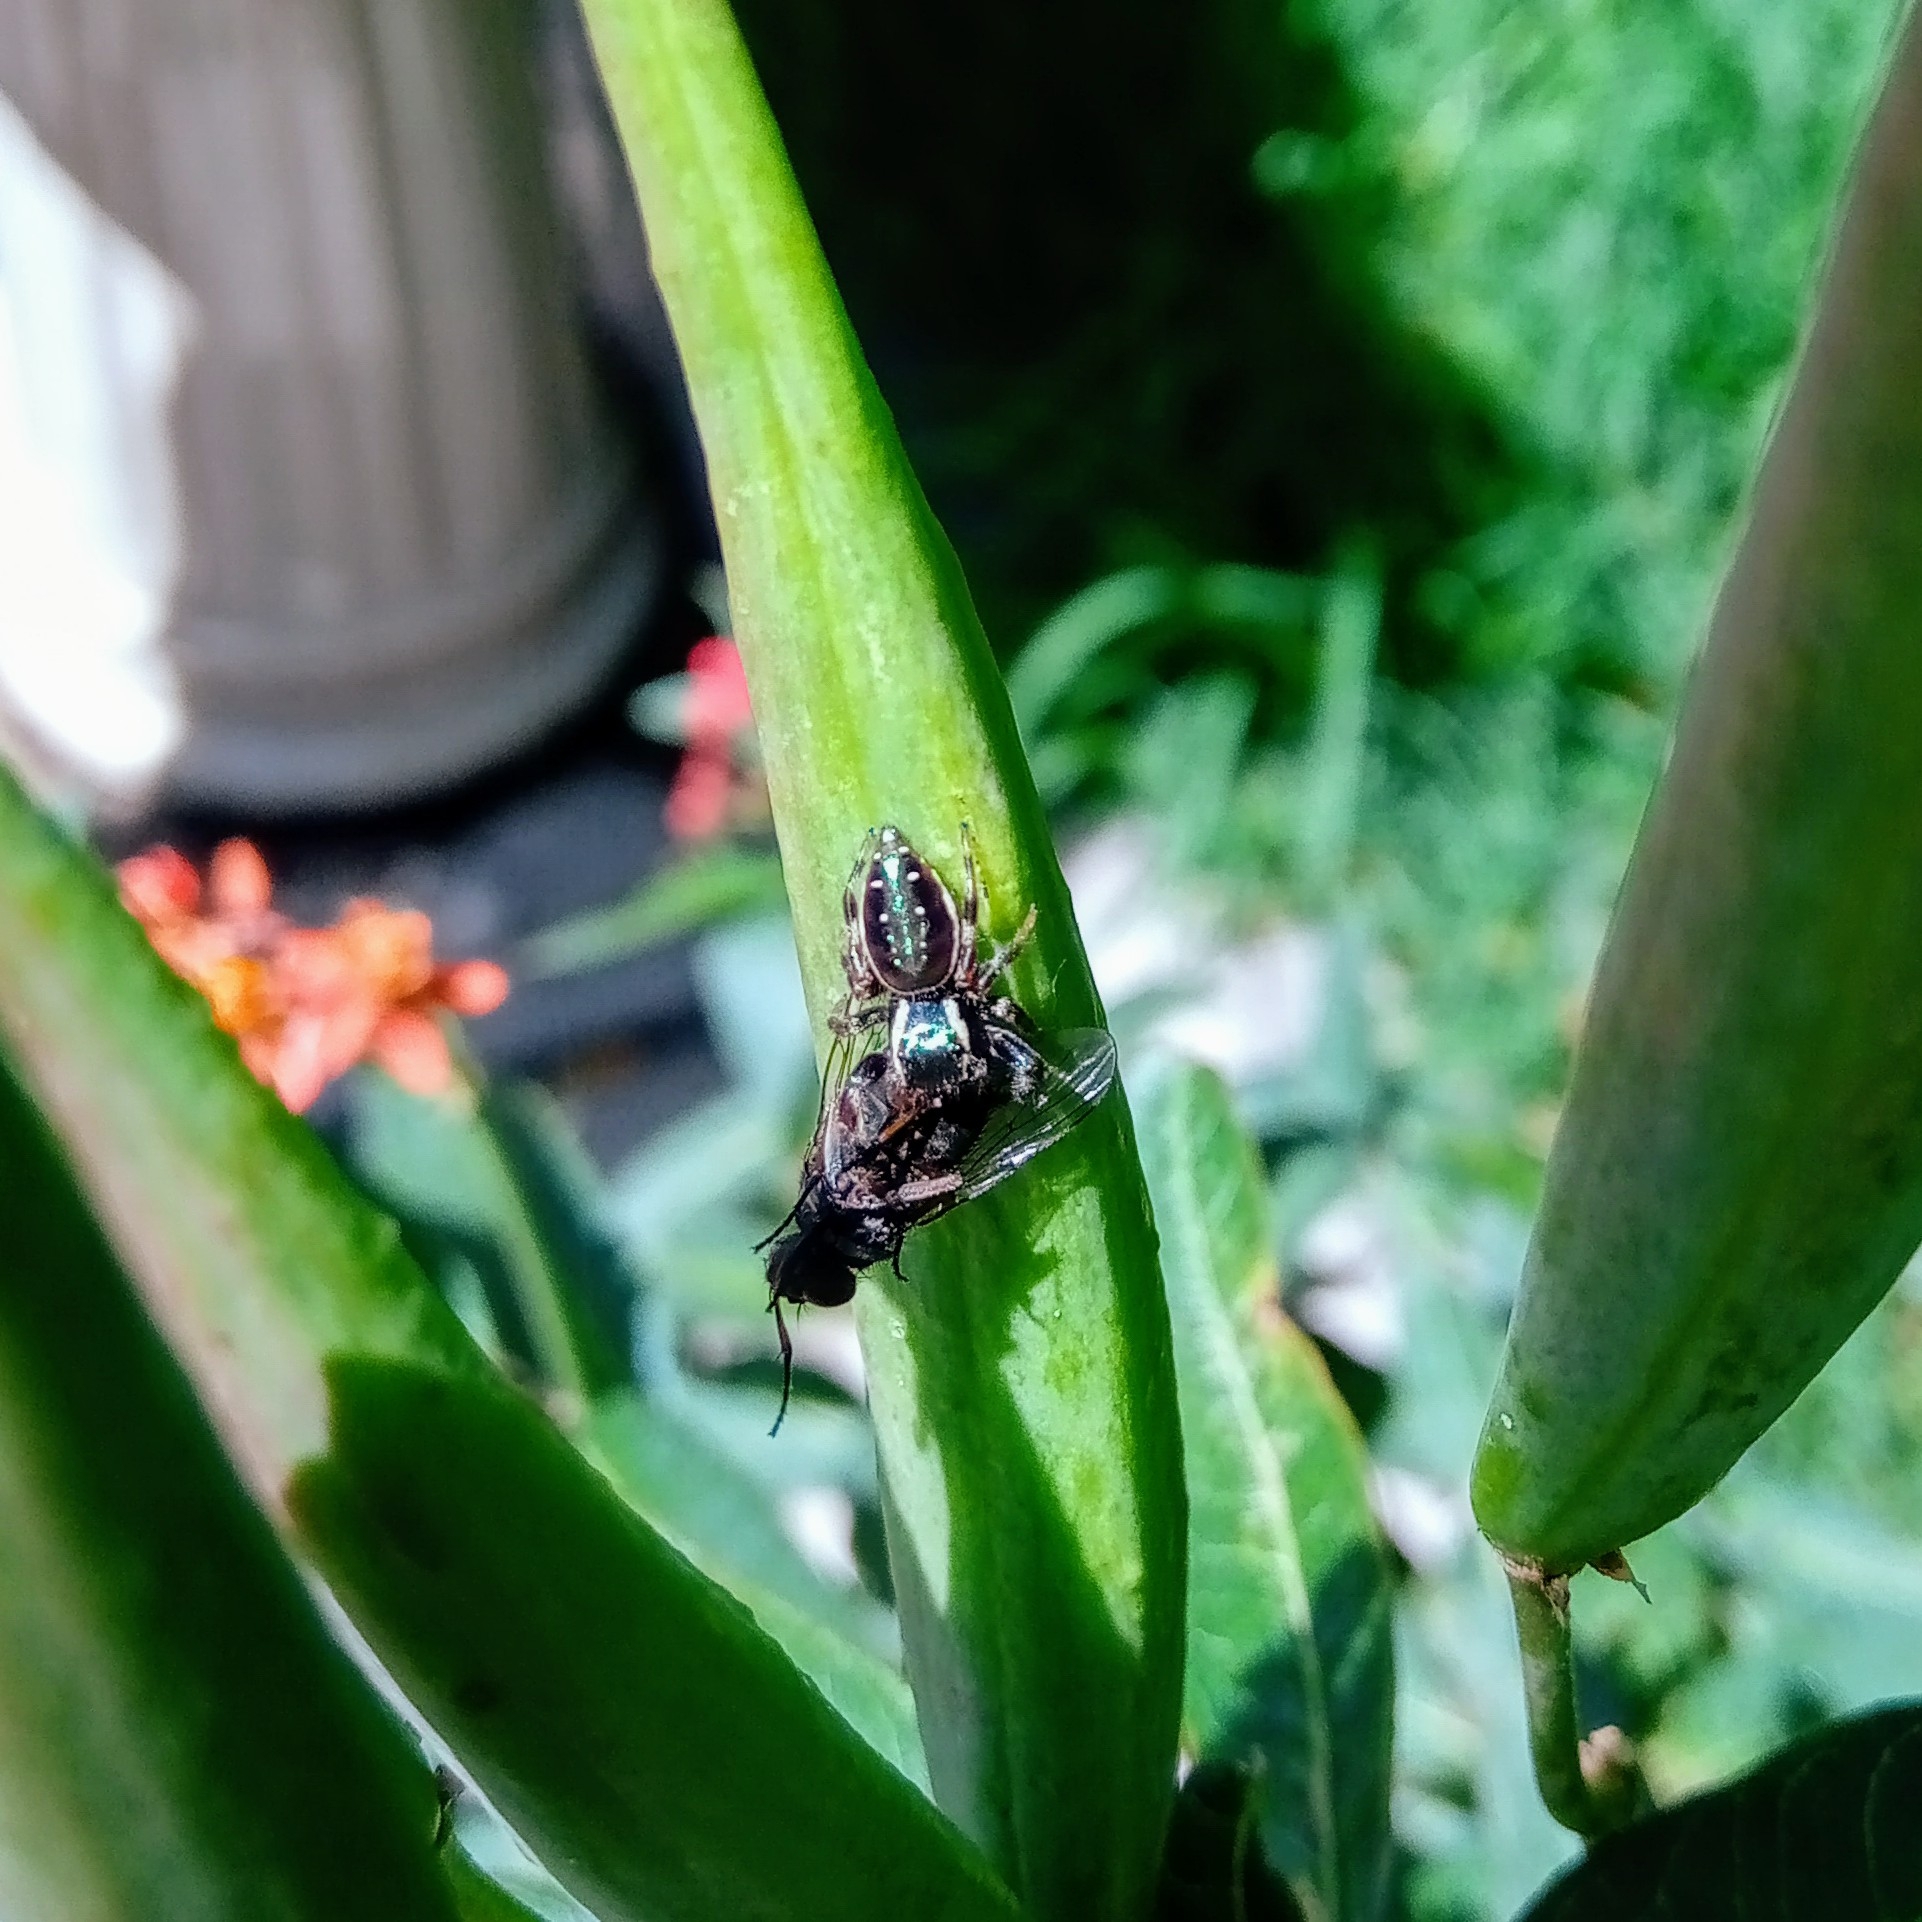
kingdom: Animalia
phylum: Arthropoda
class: Arachnida
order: Araneae
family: Salticidae
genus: Paraphidippus
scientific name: Paraphidippus aurantius
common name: Jumping spiders
